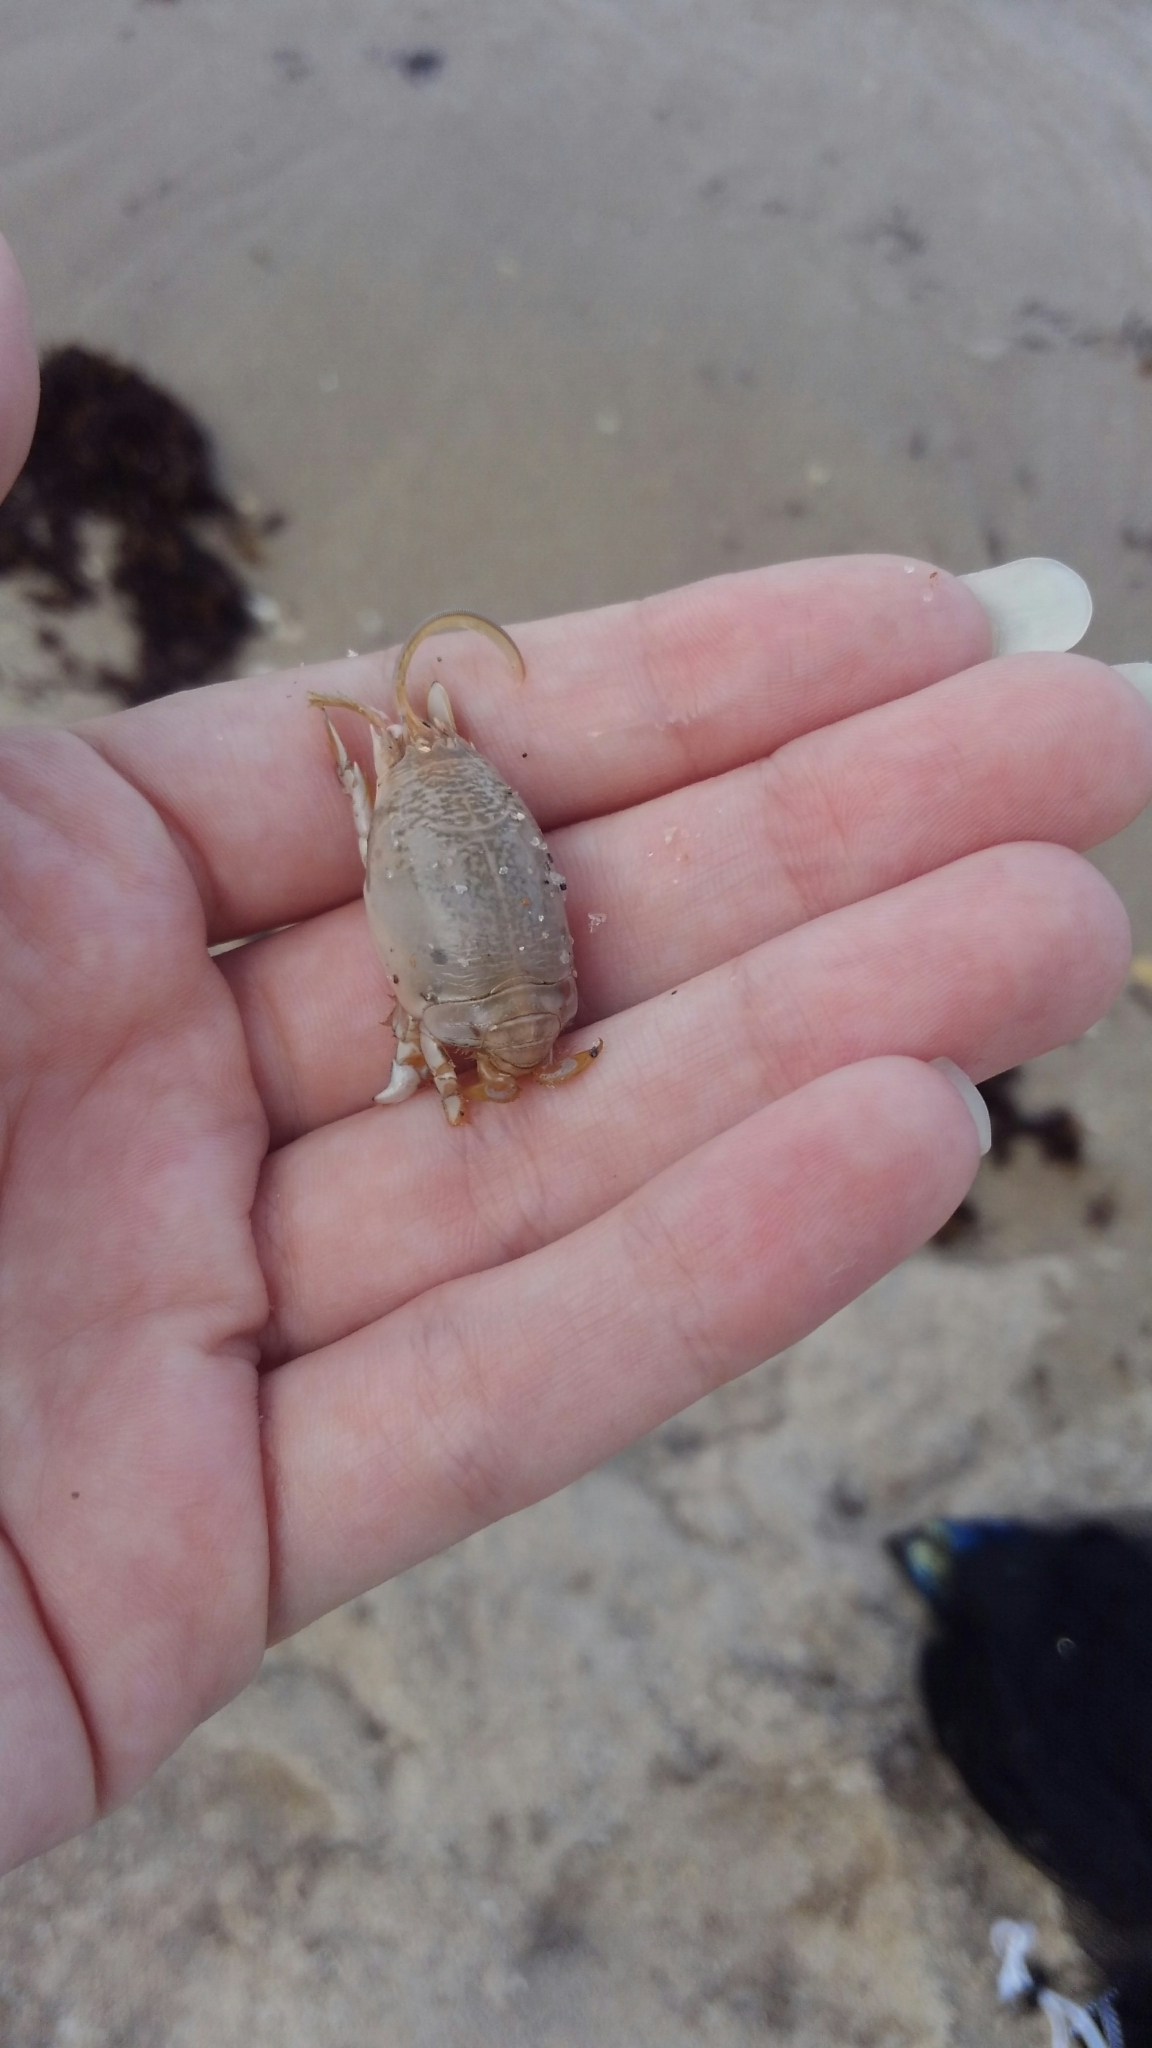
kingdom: Animalia
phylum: Arthropoda
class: Malacostraca
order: Decapoda
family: Hippidae
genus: Emerita
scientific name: Emerita talpoida
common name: Atlantic sand crab
